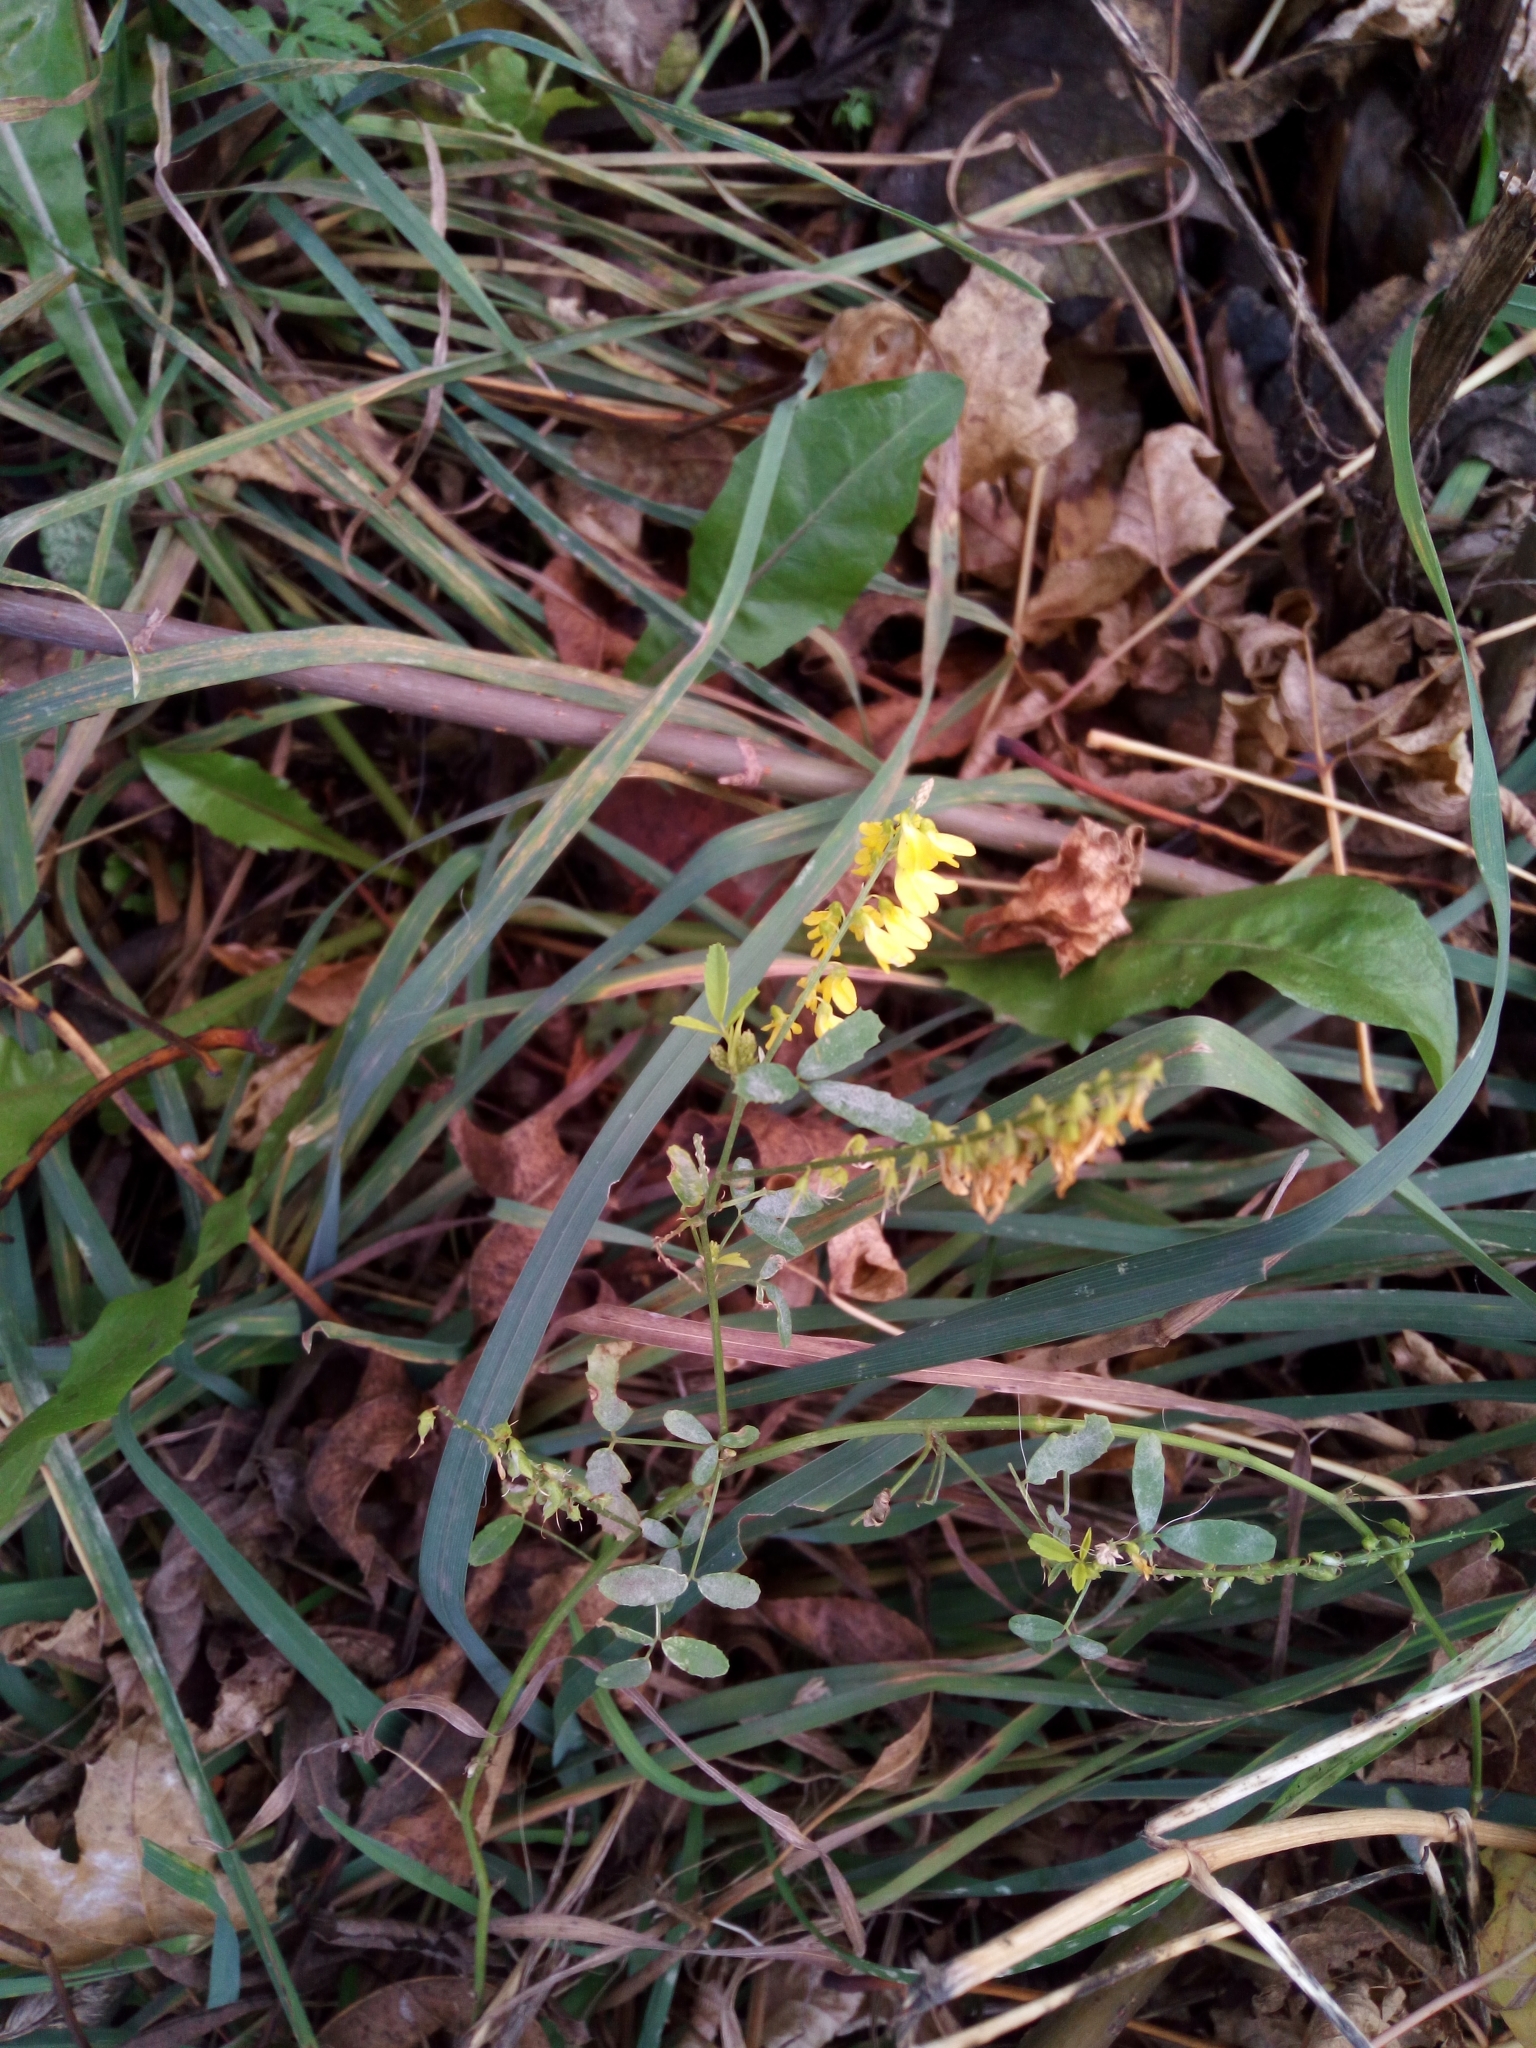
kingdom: Plantae
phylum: Tracheophyta
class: Magnoliopsida
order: Fabales
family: Fabaceae
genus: Melilotus
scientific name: Melilotus officinalis
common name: Sweetclover
